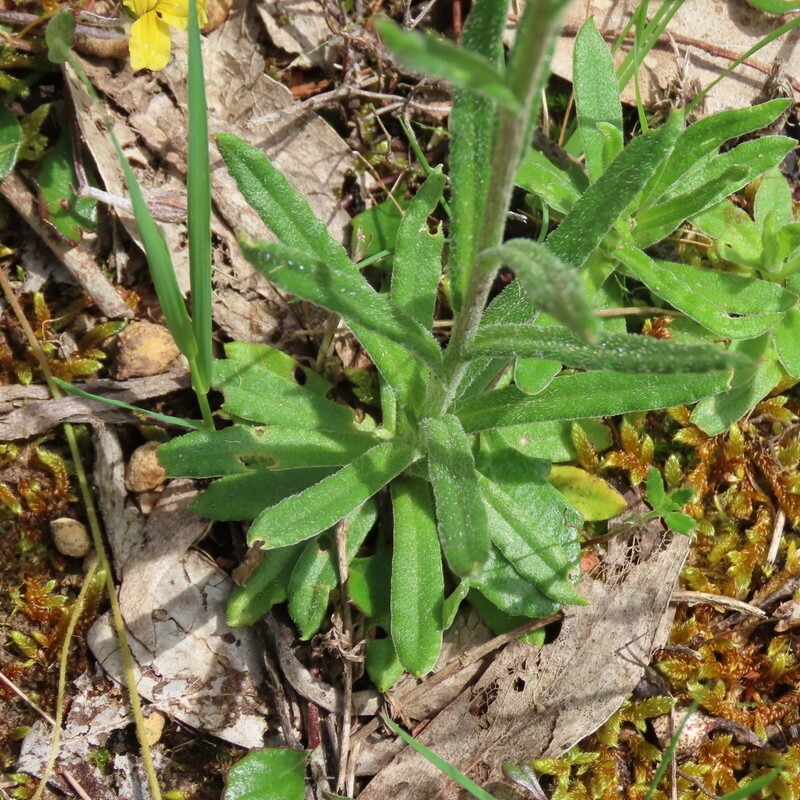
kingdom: Plantae
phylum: Tracheophyta
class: Magnoliopsida
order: Asterales
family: Asteraceae
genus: Coronidium
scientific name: Coronidium scorpioides
